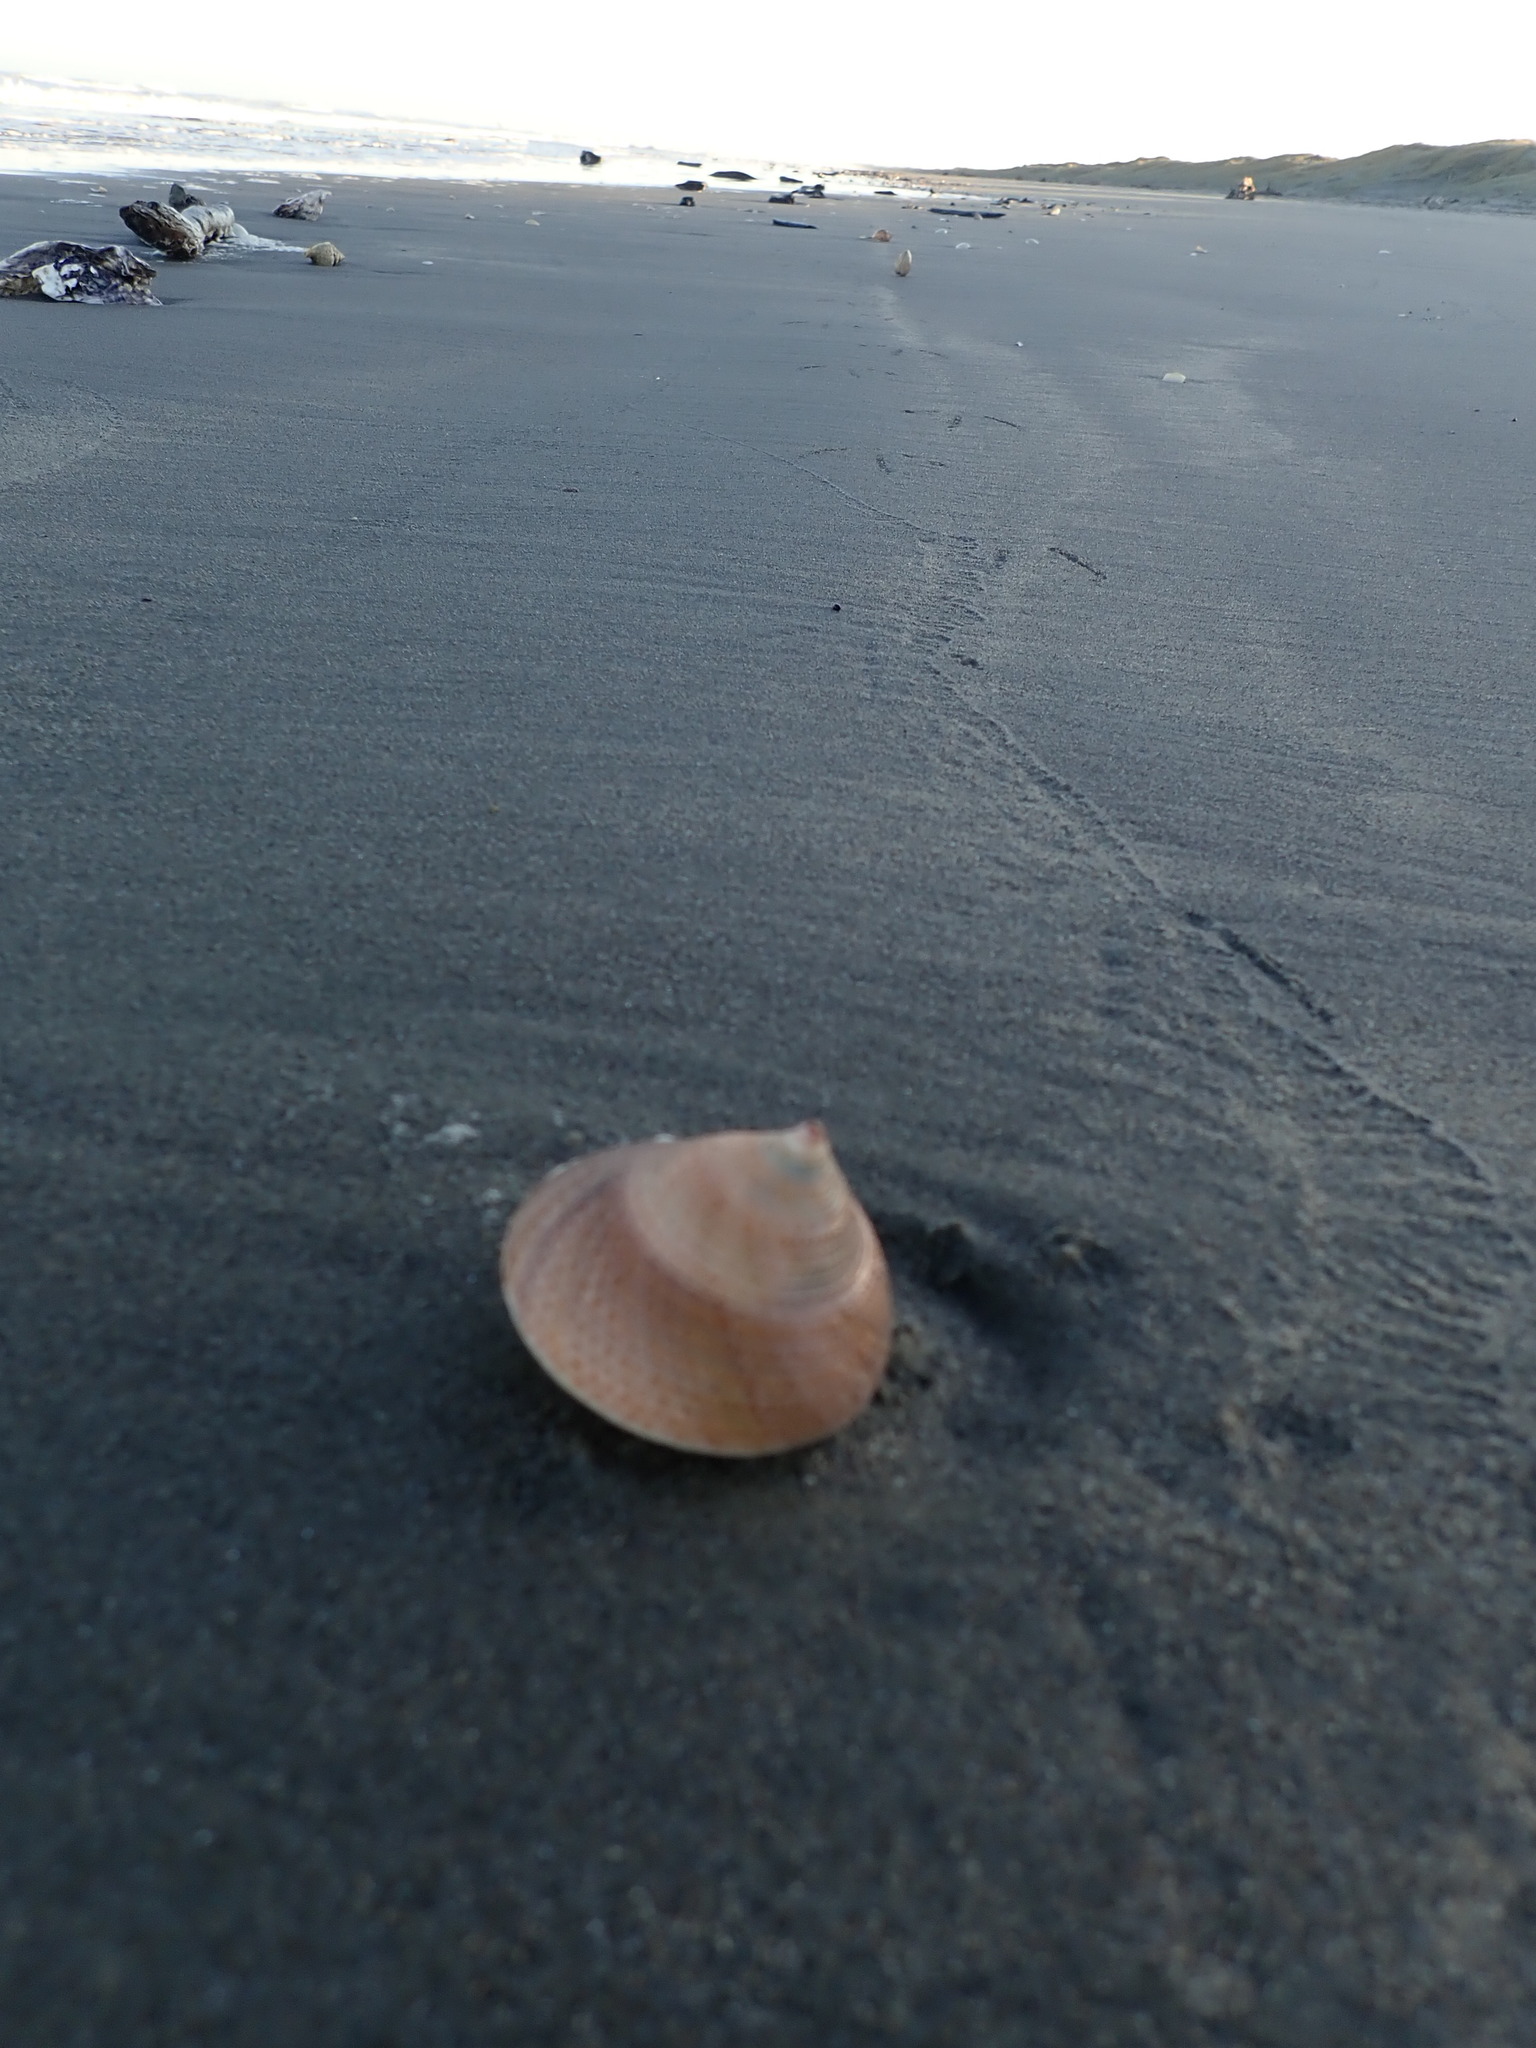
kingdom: Animalia
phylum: Mollusca
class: Gastropoda
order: Trochida
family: Calliostomatidae
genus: Maurea
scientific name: Maurea selecta
